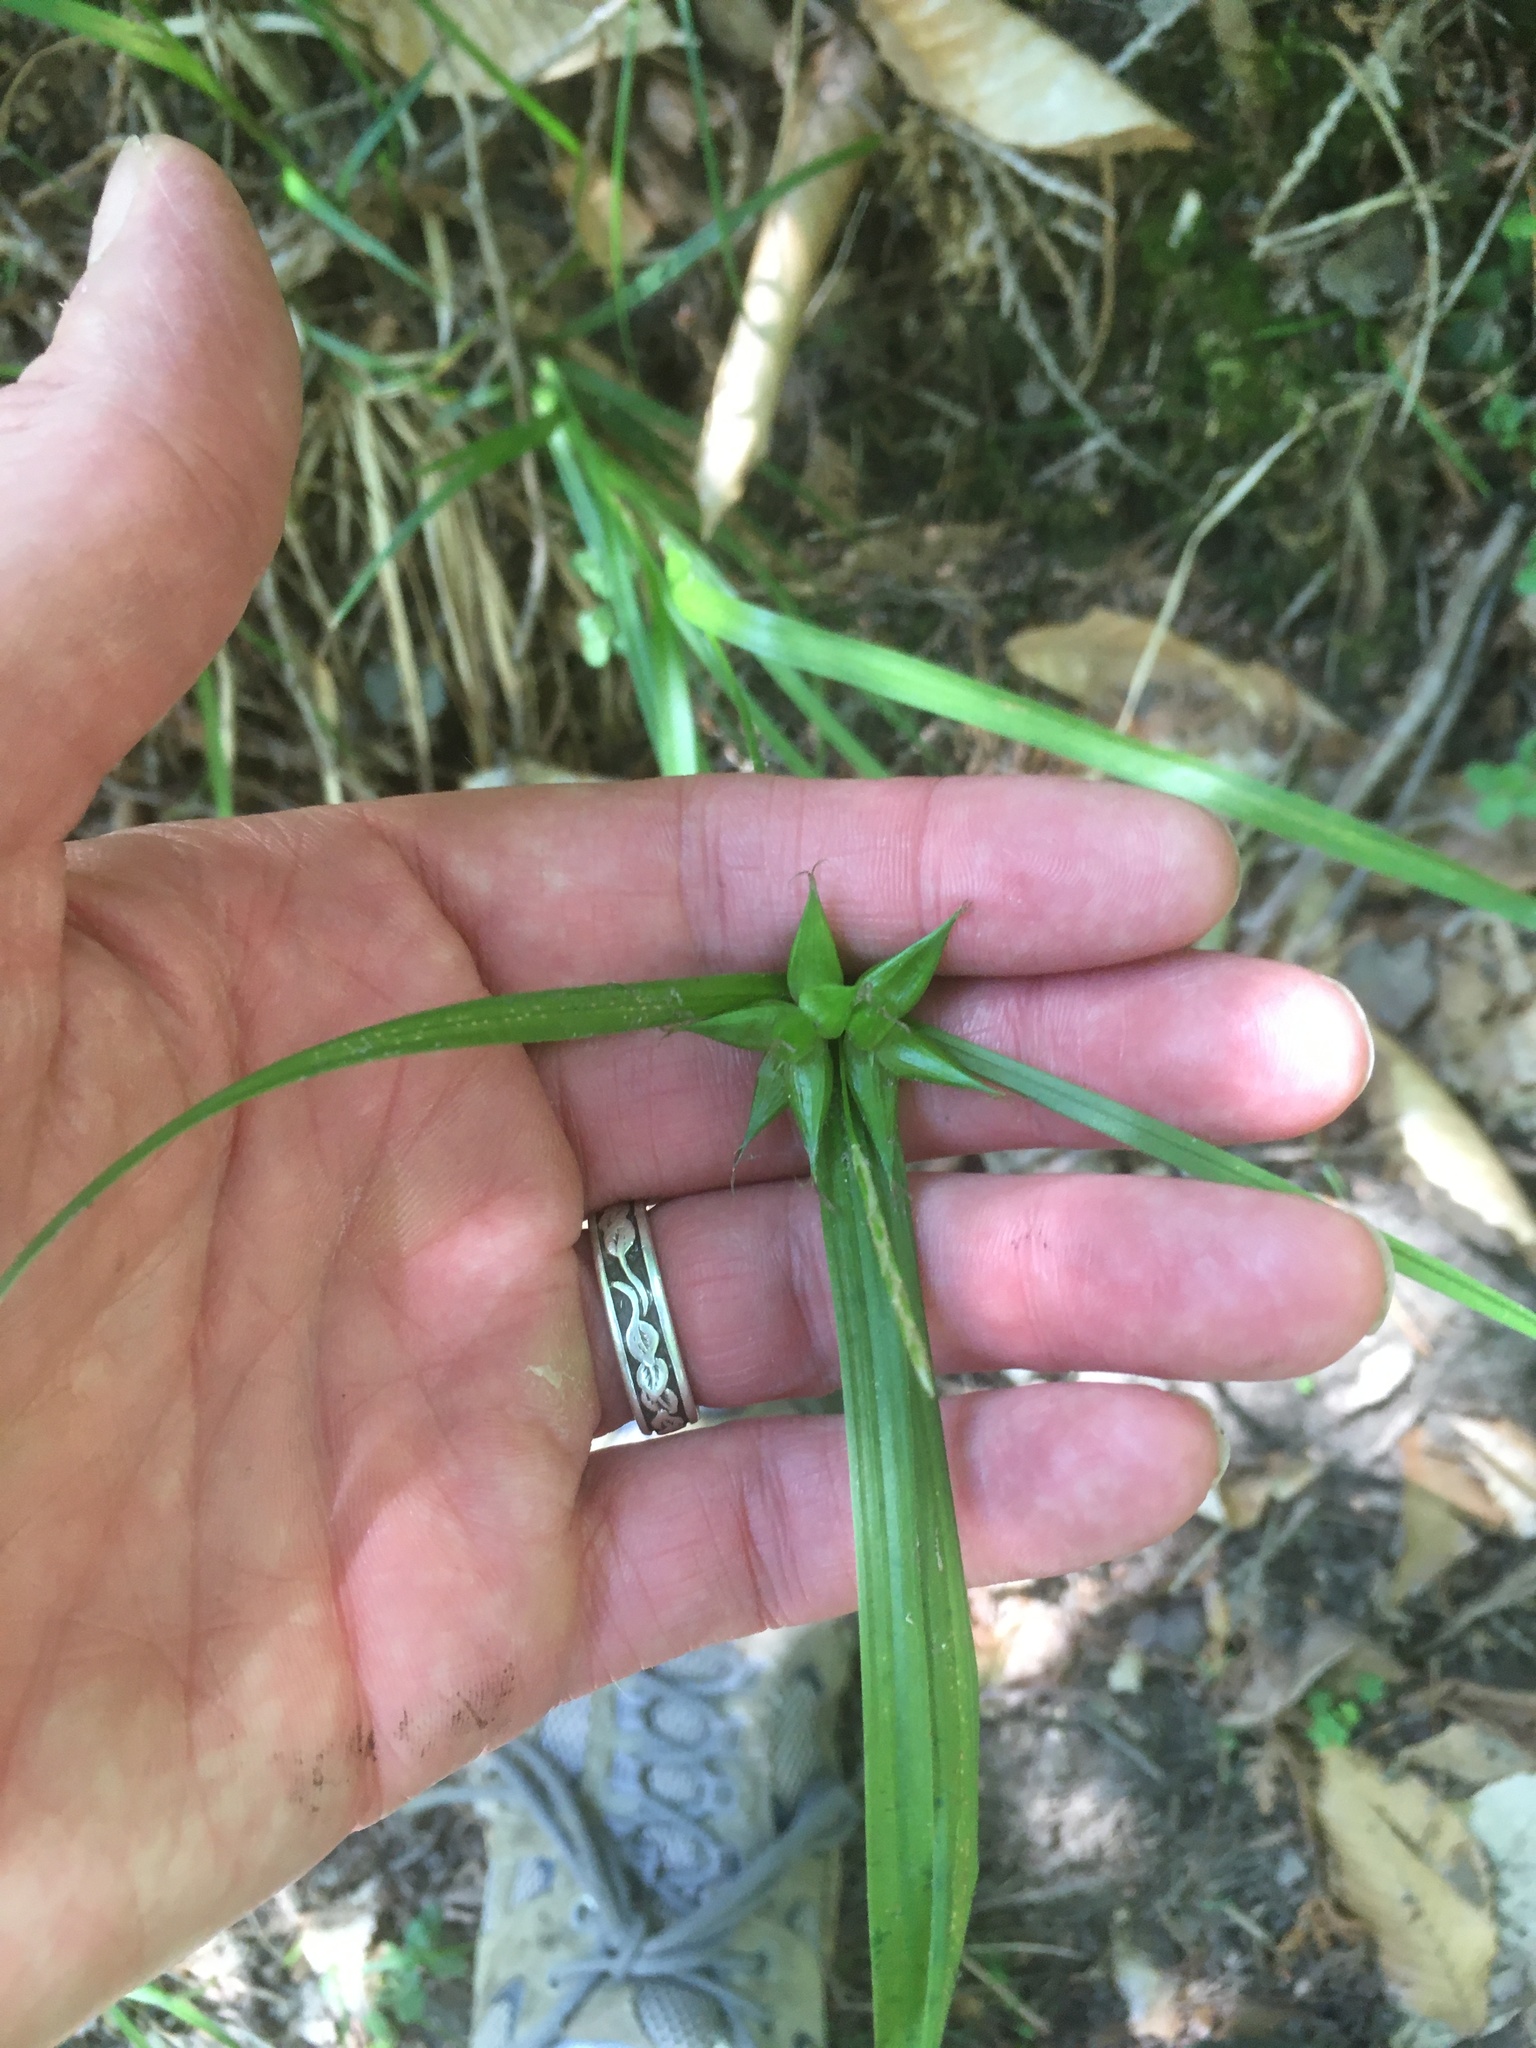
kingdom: Plantae
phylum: Tracheophyta
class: Liliopsida
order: Poales
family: Cyperaceae
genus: Carex
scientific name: Carex intumescens
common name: Greater bladder sedge
